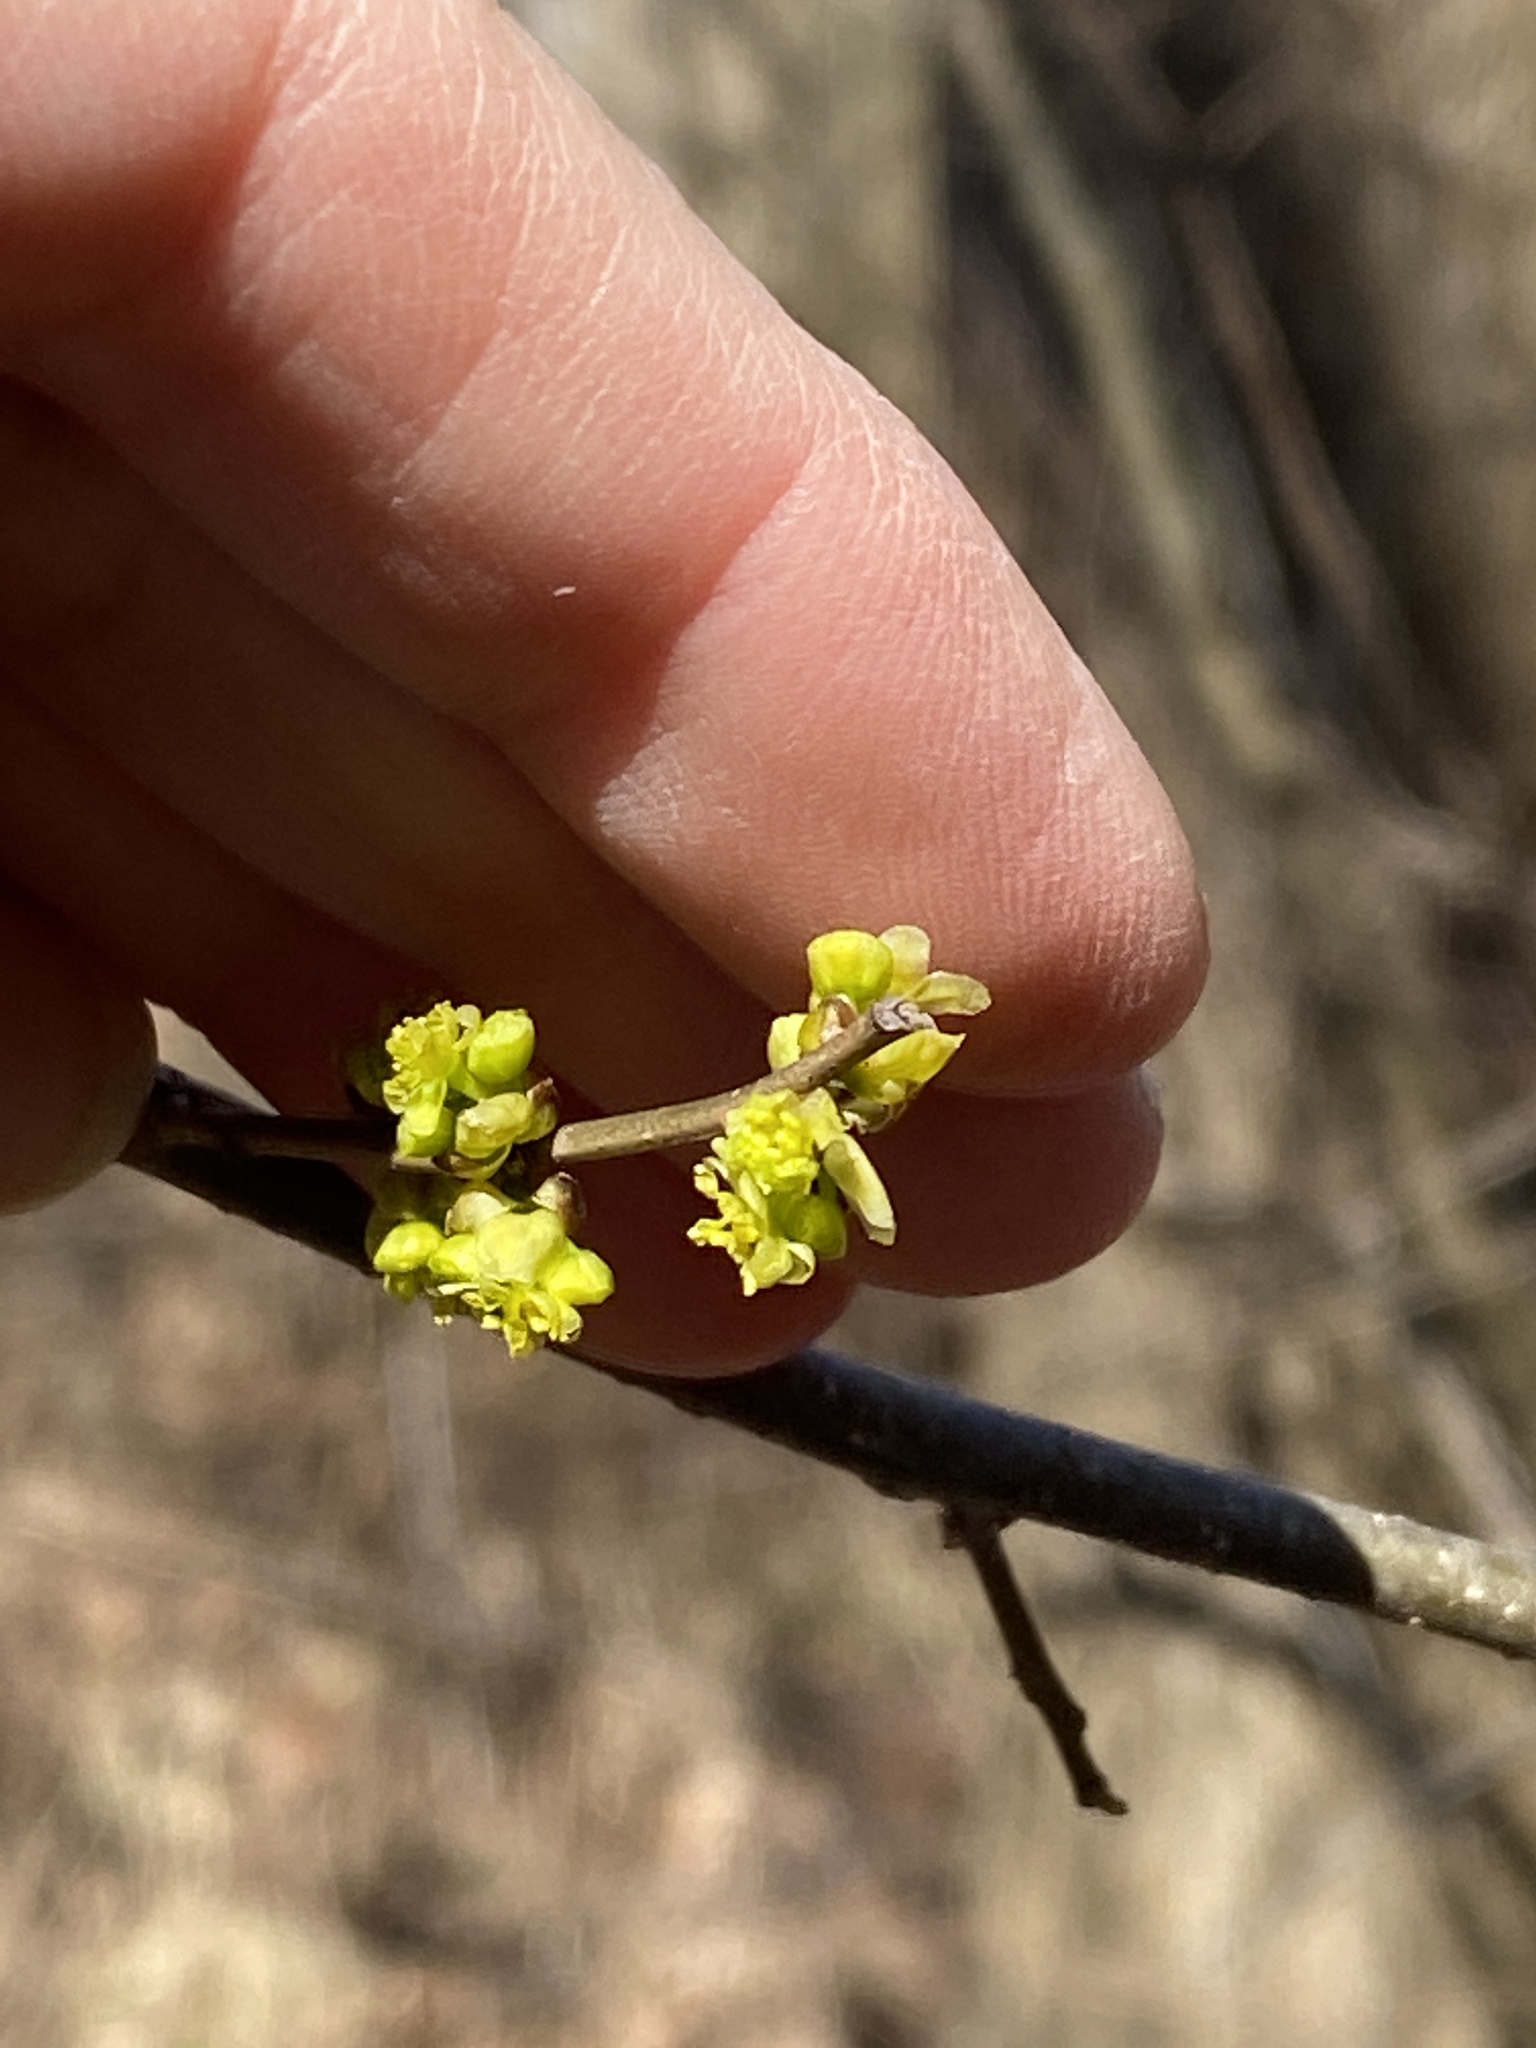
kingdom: Plantae
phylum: Tracheophyta
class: Magnoliopsida
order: Laurales
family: Lauraceae
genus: Lindera
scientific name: Lindera benzoin
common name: Spicebush
